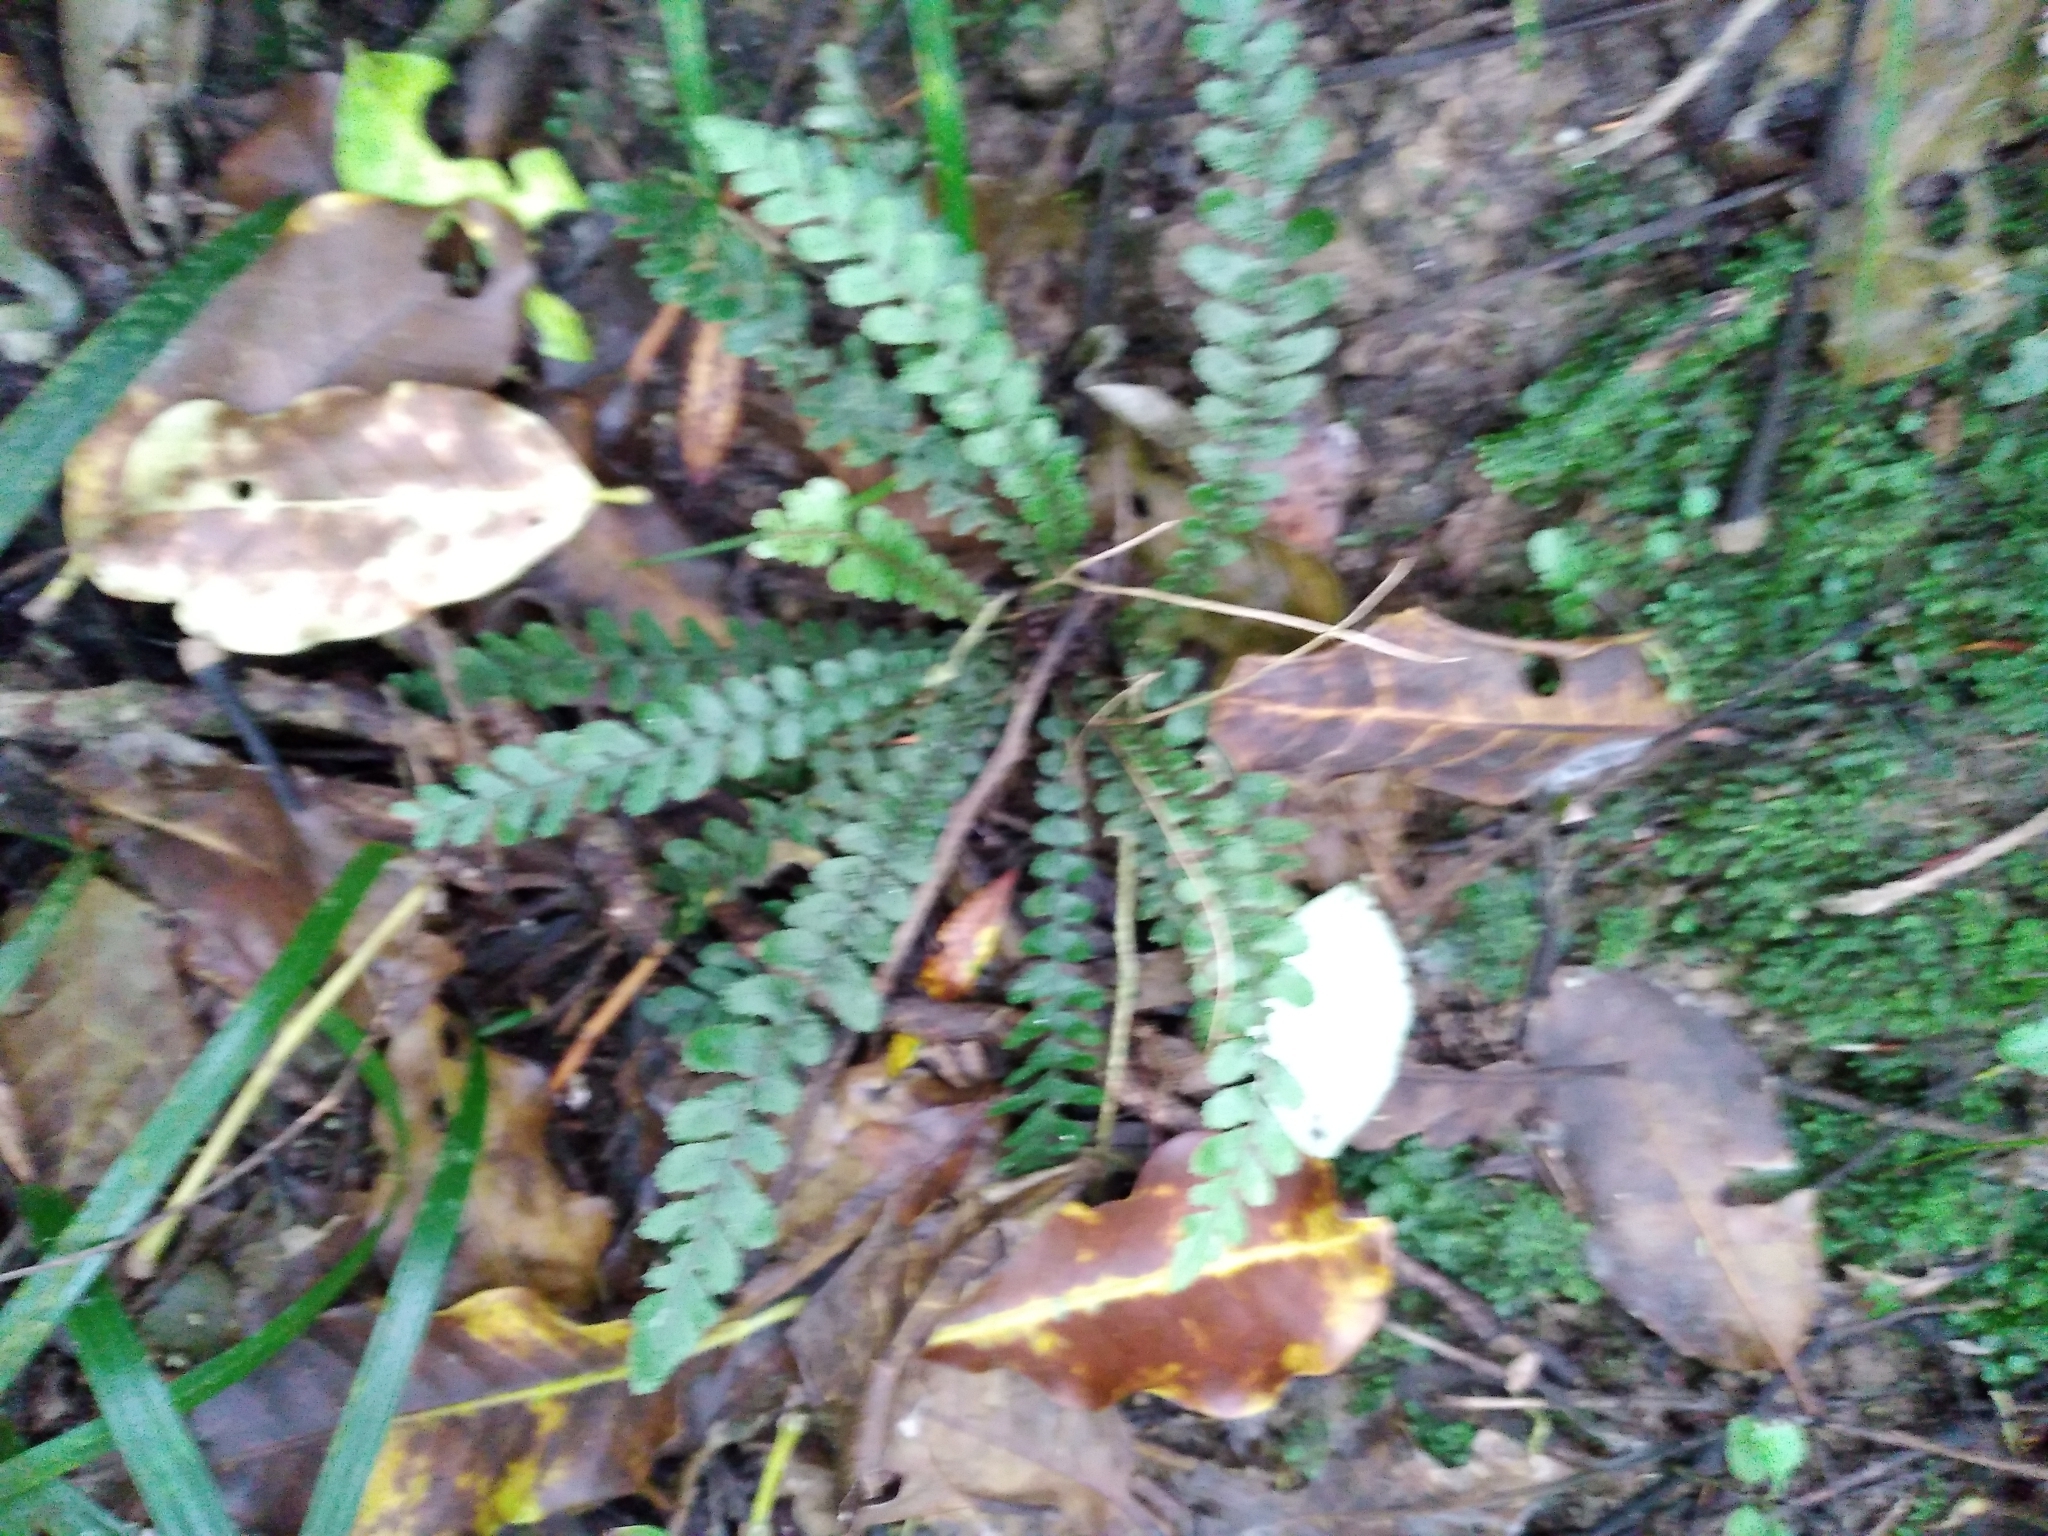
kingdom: Plantae
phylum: Tracheophyta
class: Polypodiopsida
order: Polypodiales
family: Blechnaceae
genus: Austroblechnum
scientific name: Austroblechnum membranaceum
